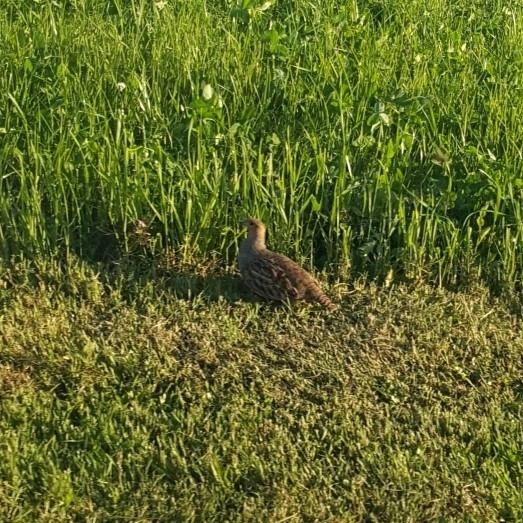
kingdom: Animalia
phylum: Chordata
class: Aves
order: Galliformes
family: Phasianidae
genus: Perdix
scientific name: Perdix perdix
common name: Grey partridge
